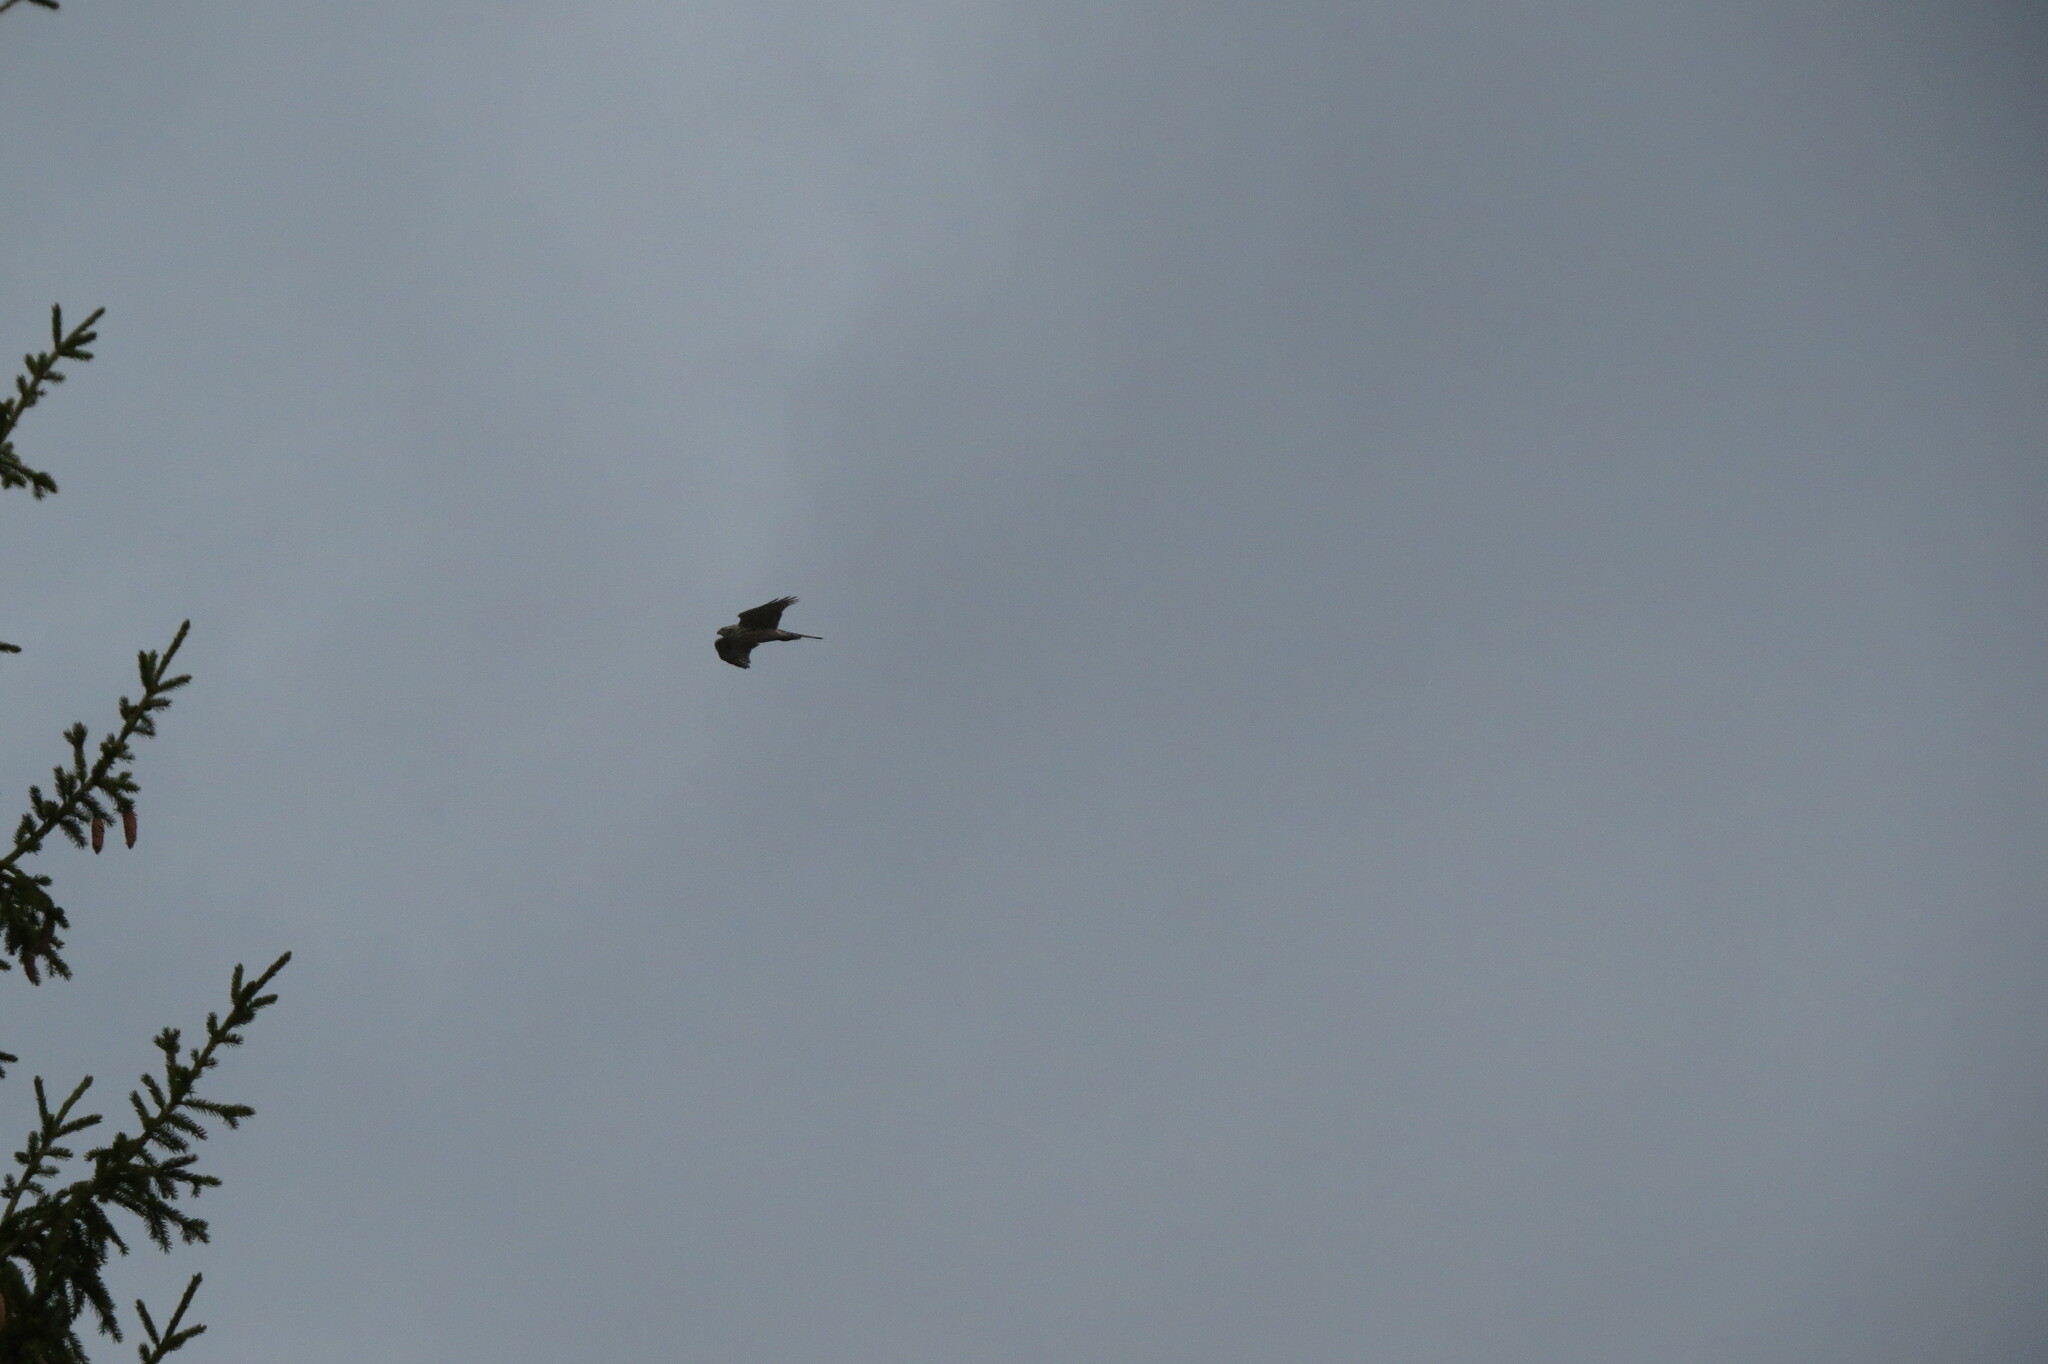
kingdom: Animalia
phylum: Chordata
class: Aves
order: Accipitriformes
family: Accipitridae
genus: Accipiter
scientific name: Accipiter gentilis
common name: Northern goshawk
